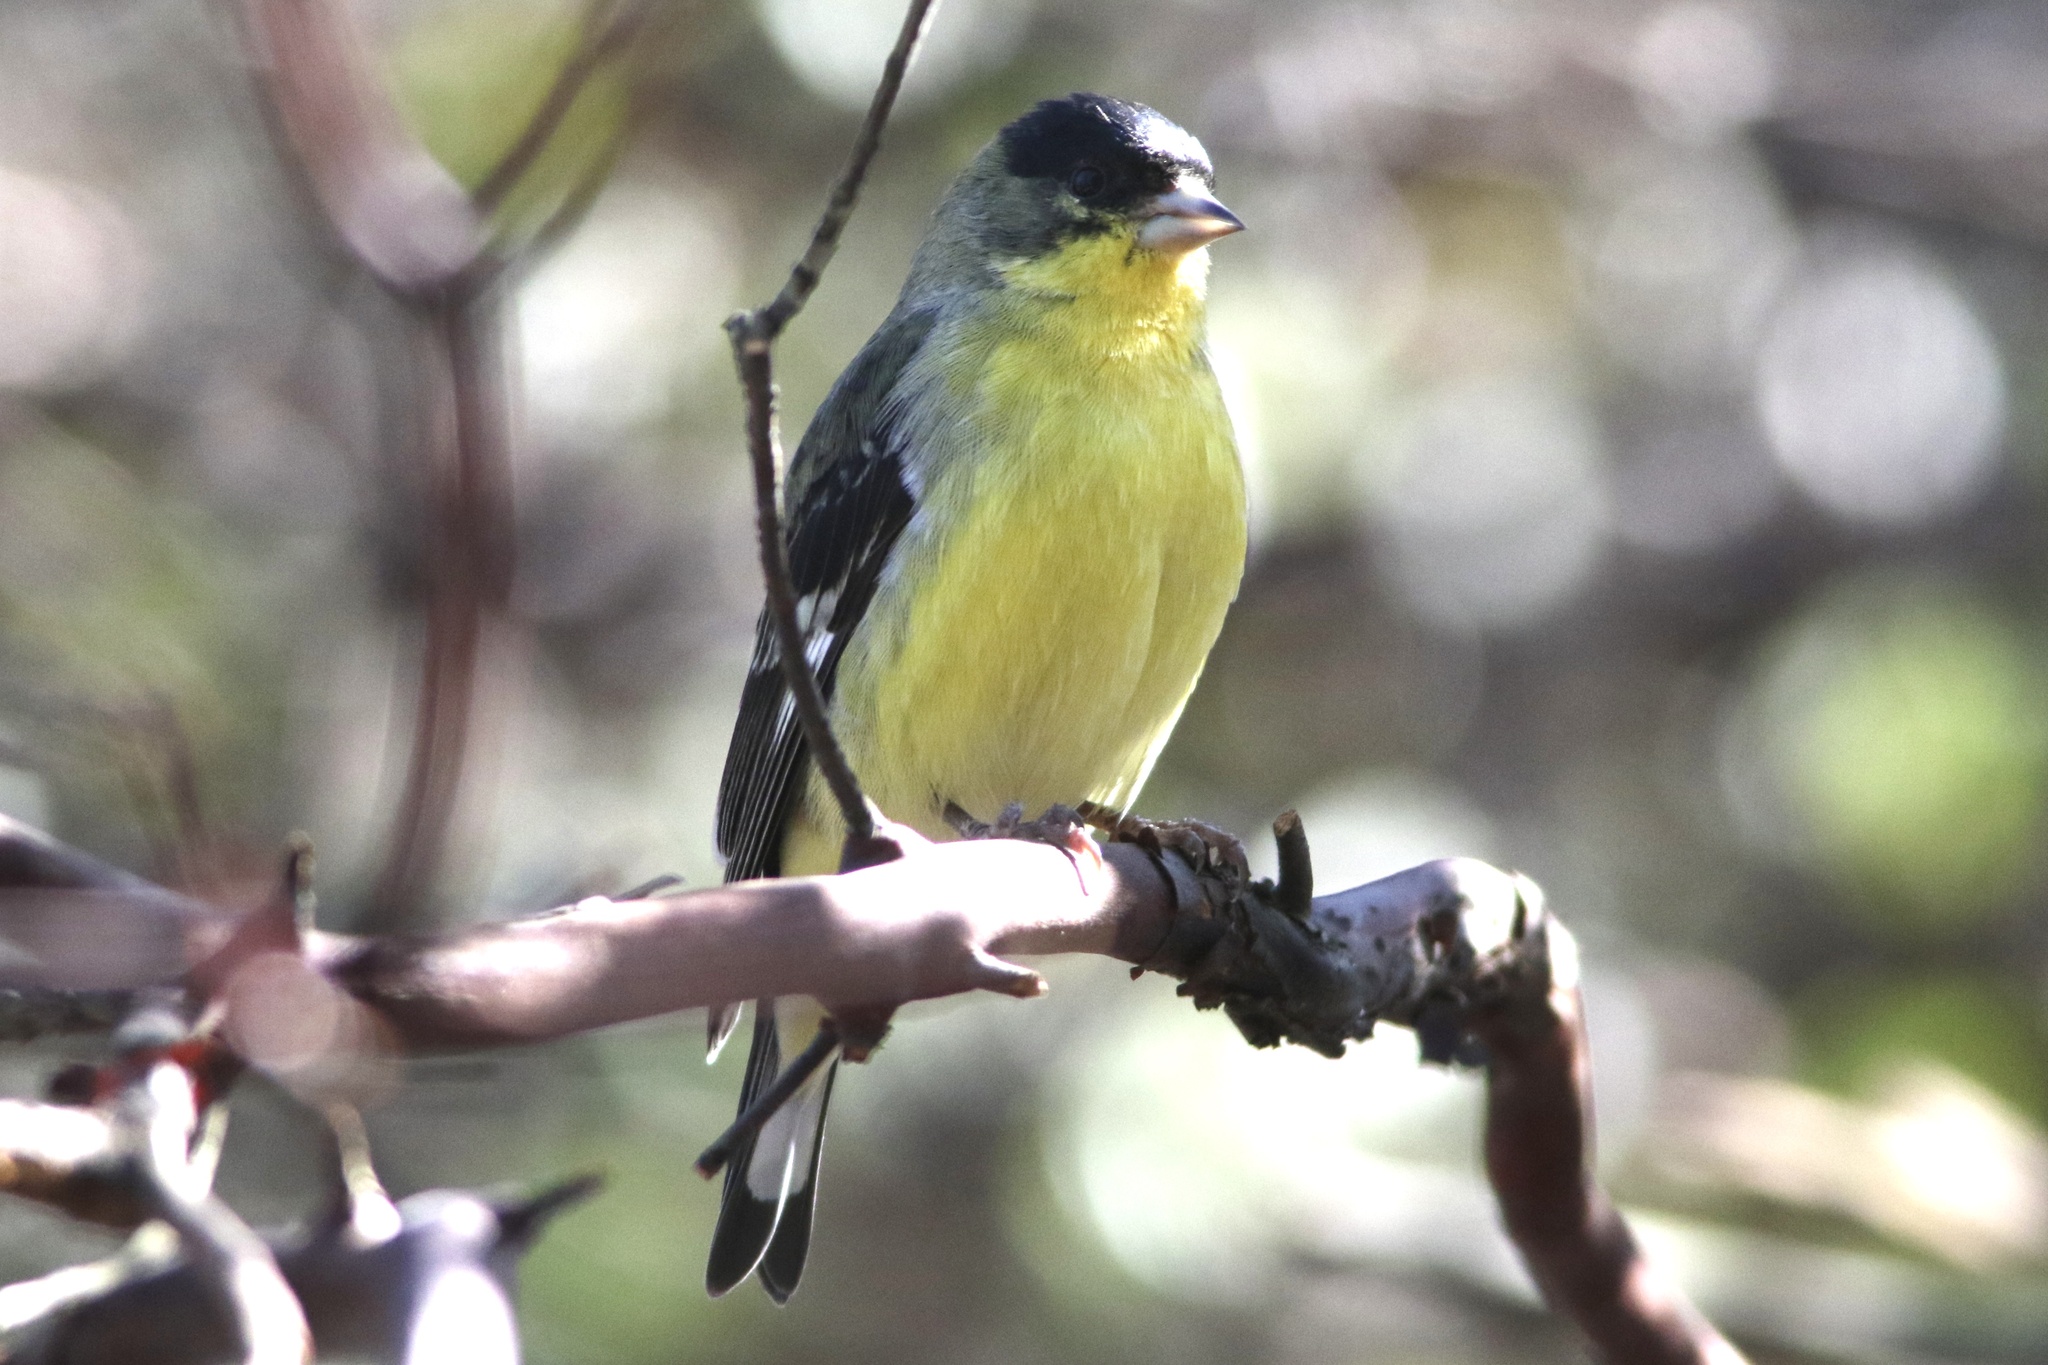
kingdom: Animalia
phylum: Chordata
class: Aves
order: Passeriformes
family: Fringillidae
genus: Spinus
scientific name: Spinus psaltria
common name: Lesser goldfinch
